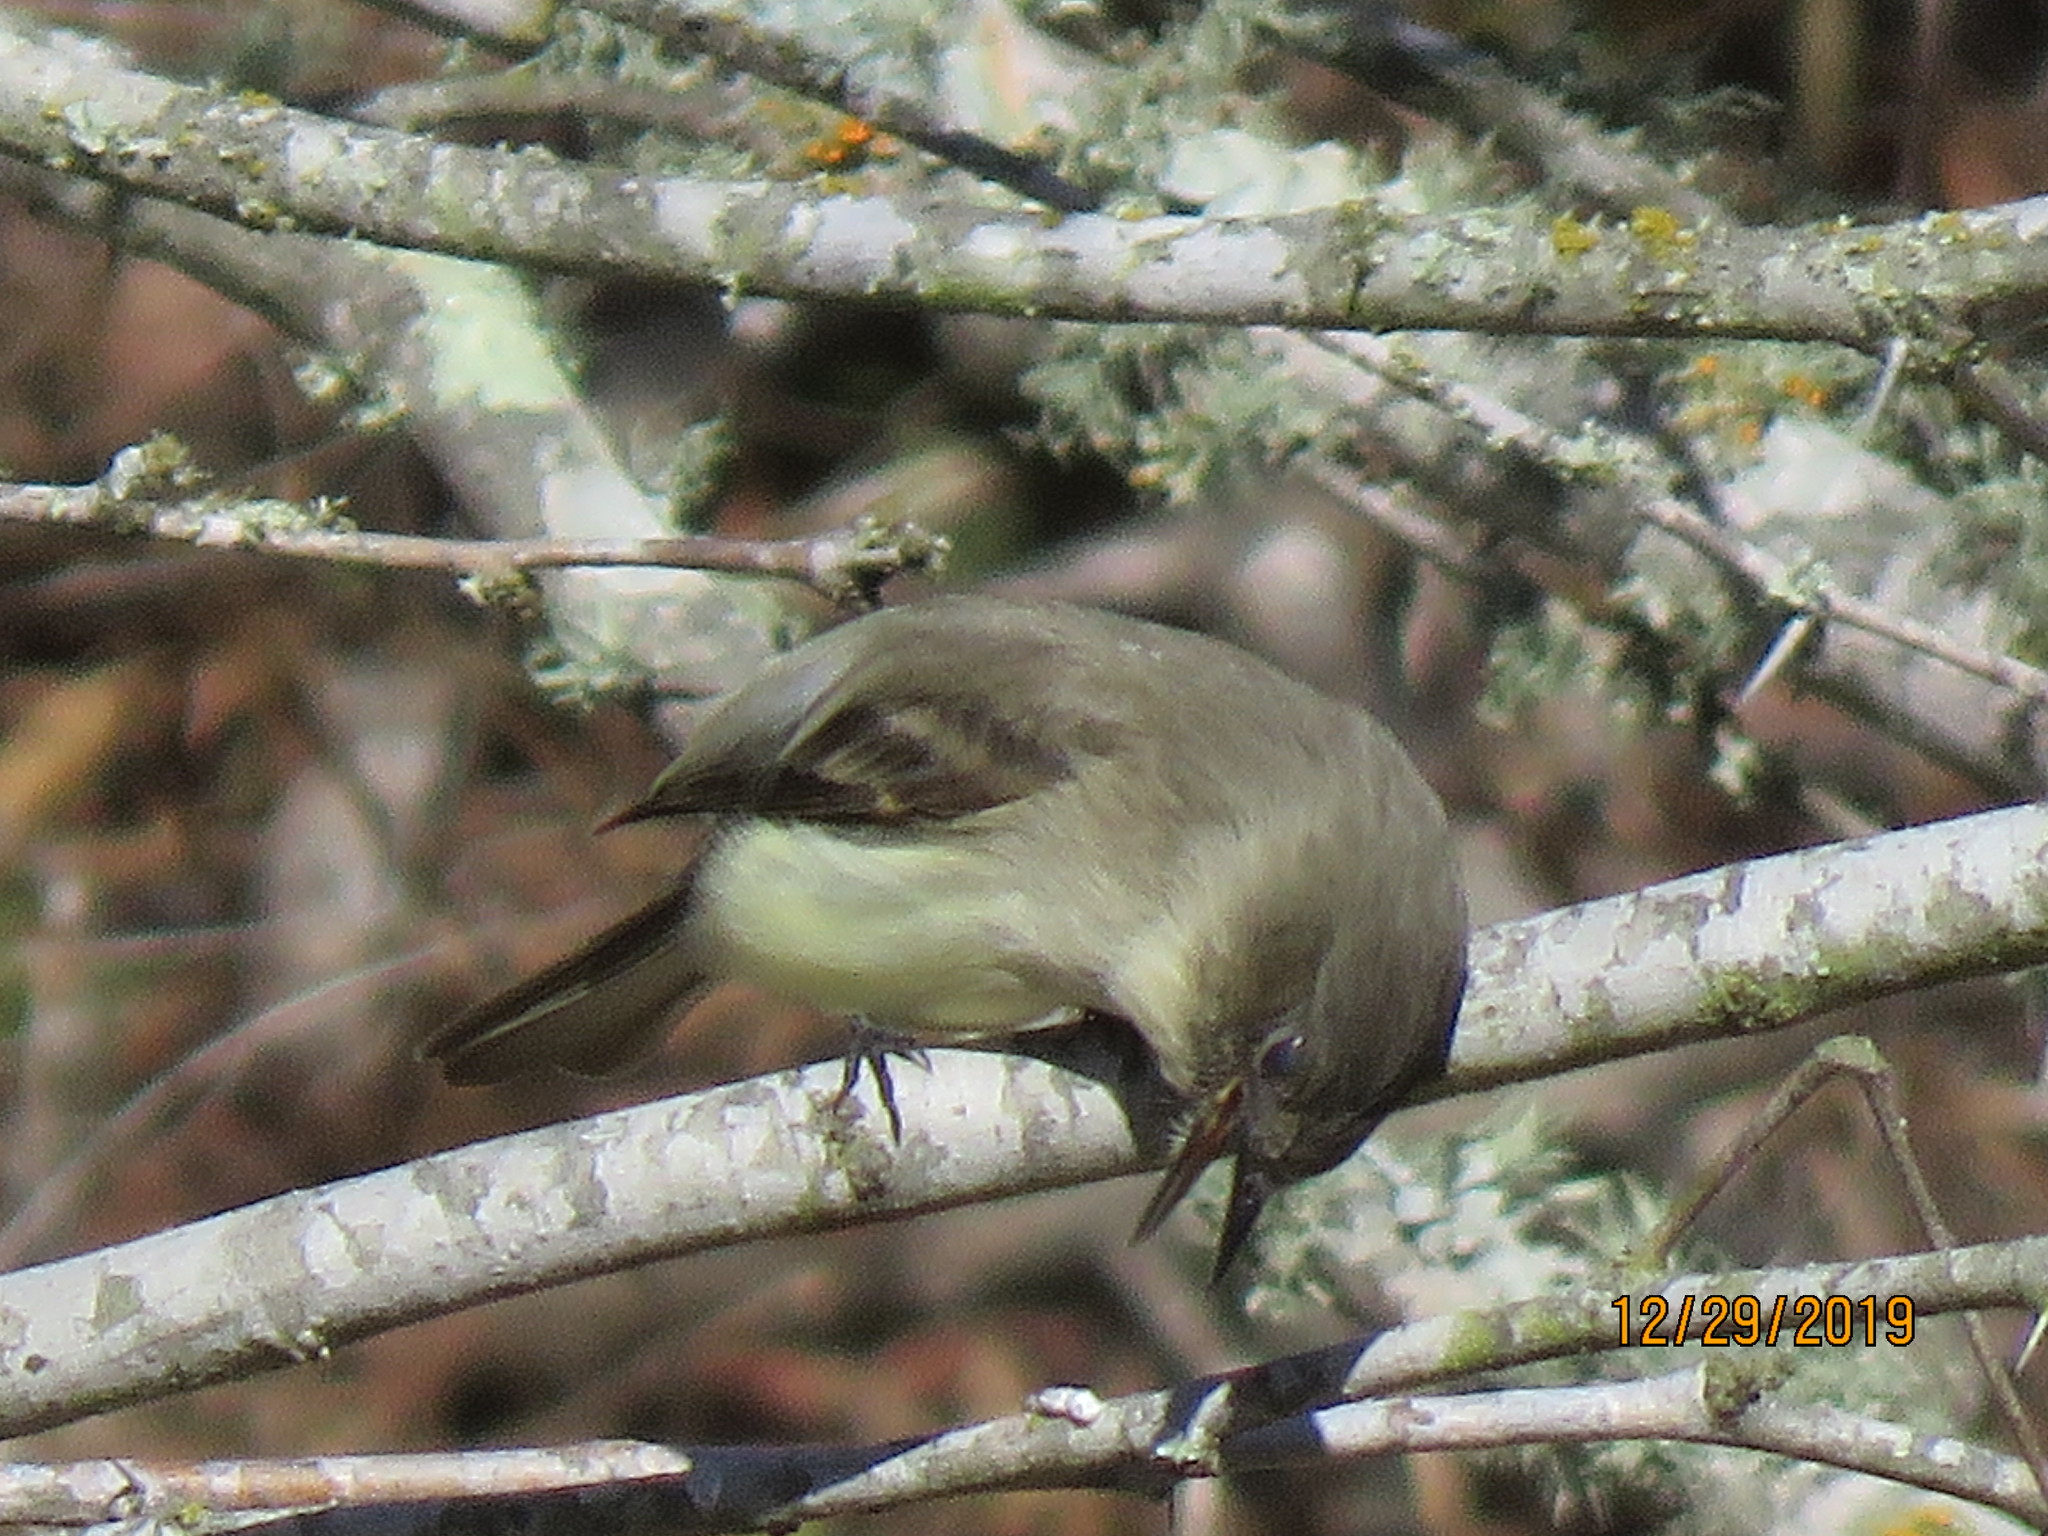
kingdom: Animalia
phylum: Chordata
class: Aves
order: Passeriformes
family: Tyrannidae
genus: Sayornis
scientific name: Sayornis phoebe
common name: Eastern phoebe
